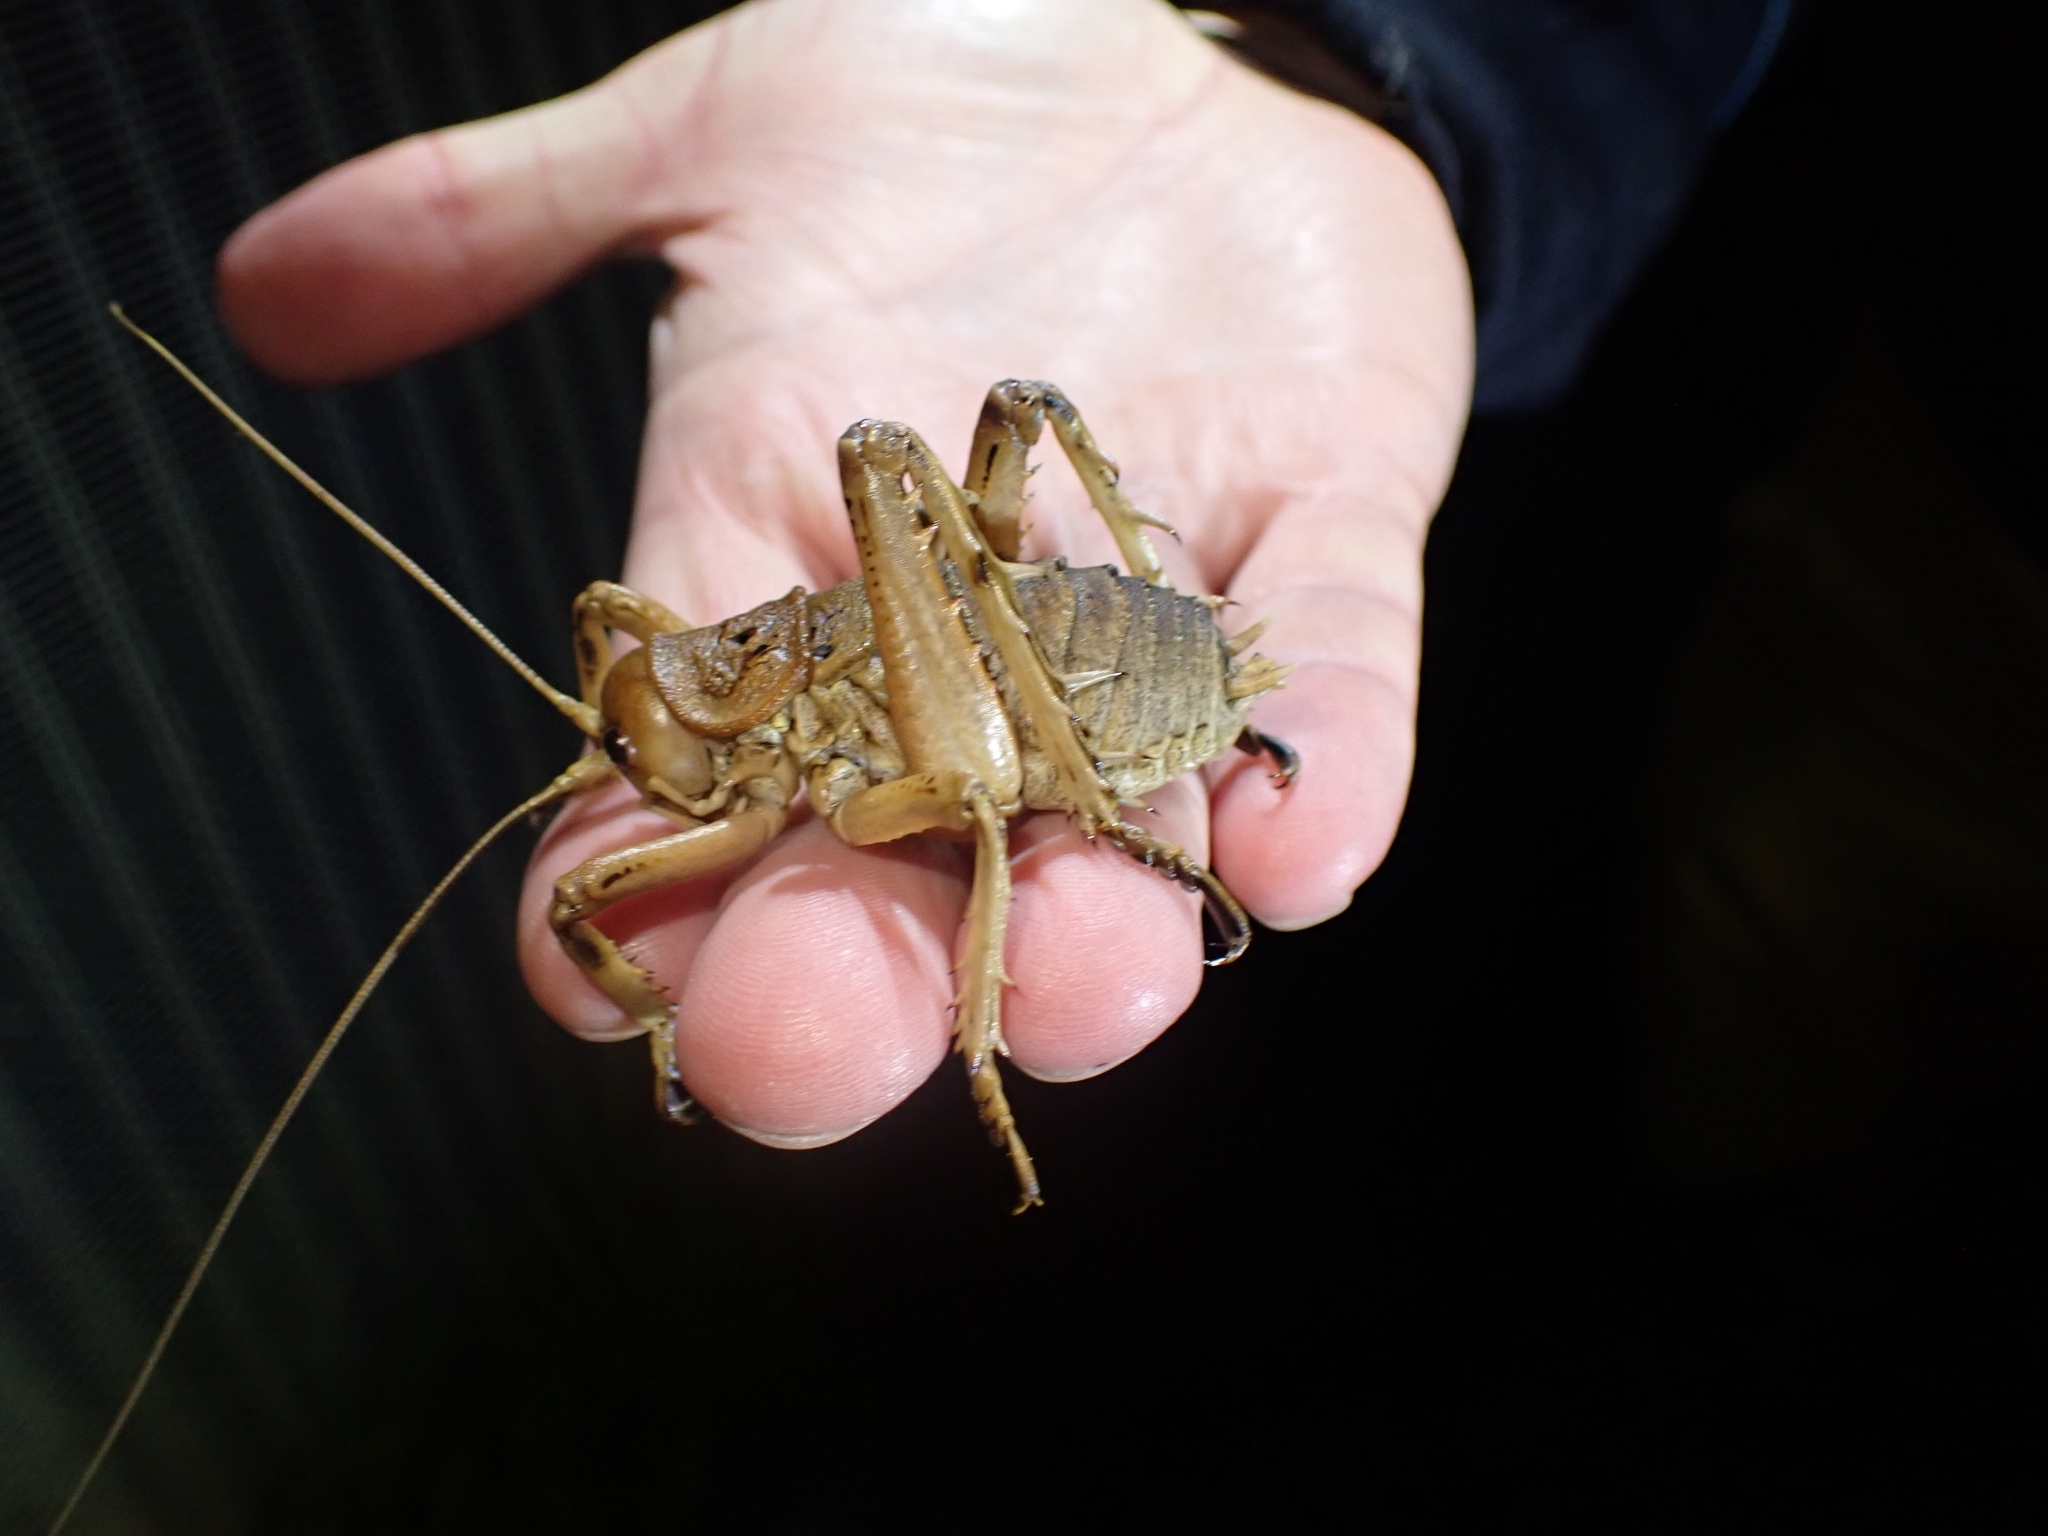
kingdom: Animalia
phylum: Arthropoda
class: Insecta
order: Orthoptera
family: Anostostomatidae
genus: Deinacrida
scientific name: Deinacrida rugosa
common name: Stephens island weta
